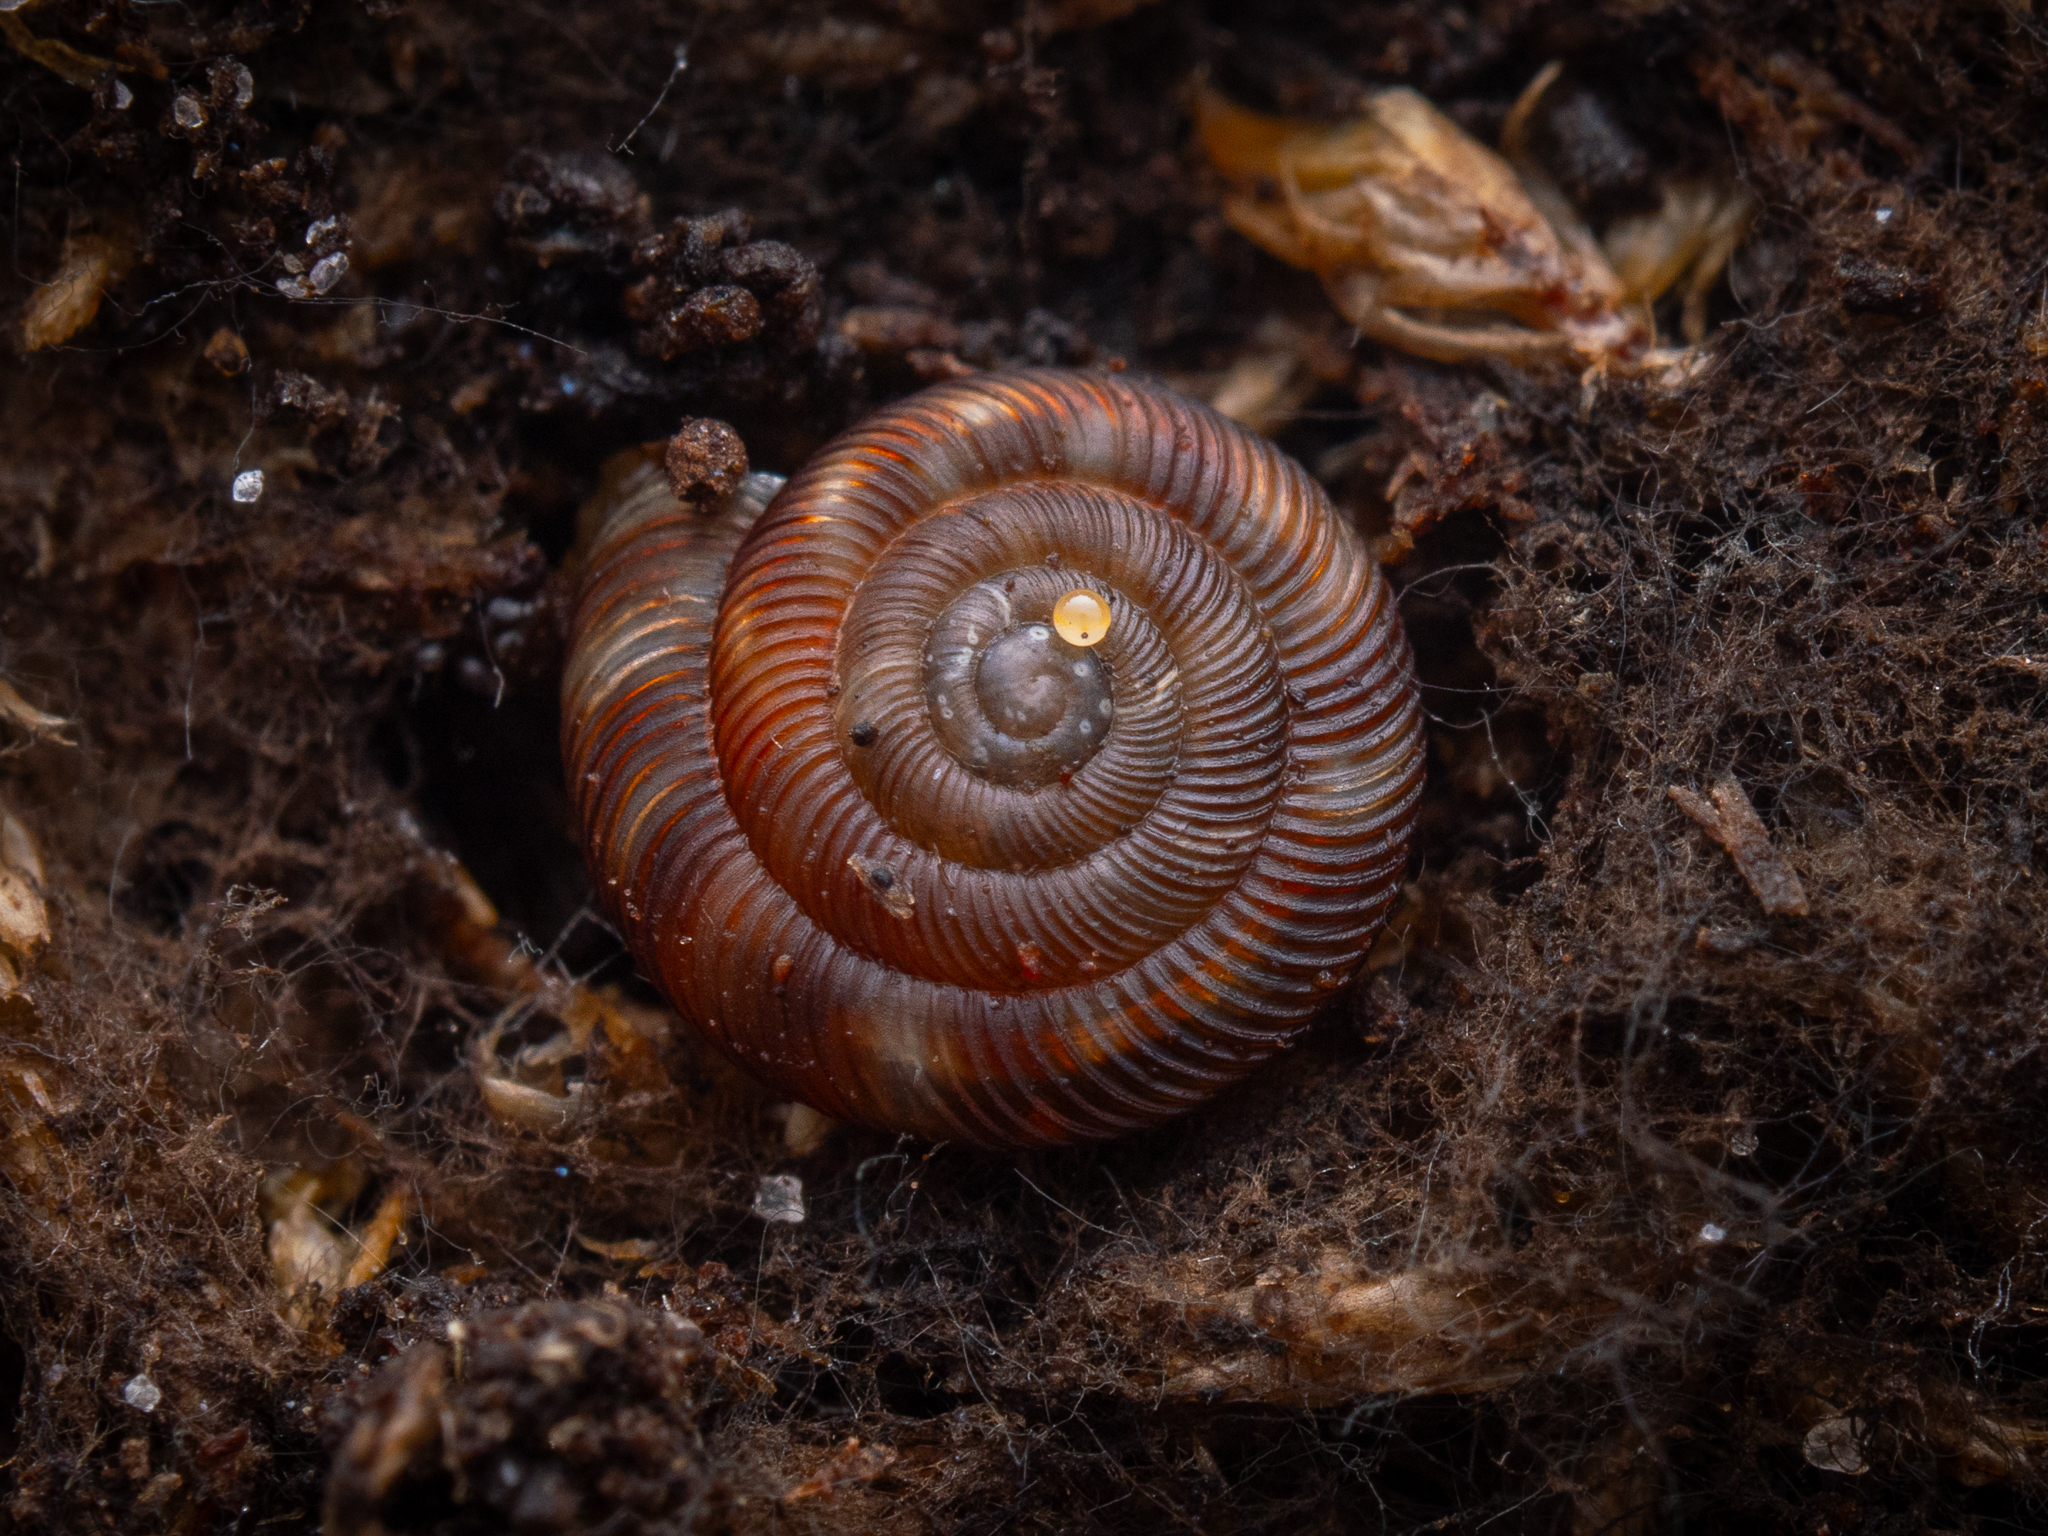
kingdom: Animalia
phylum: Mollusca
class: Gastropoda
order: Stylommatophora
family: Discidae
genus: Discus
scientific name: Discus rotundatus
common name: Rounded snail
